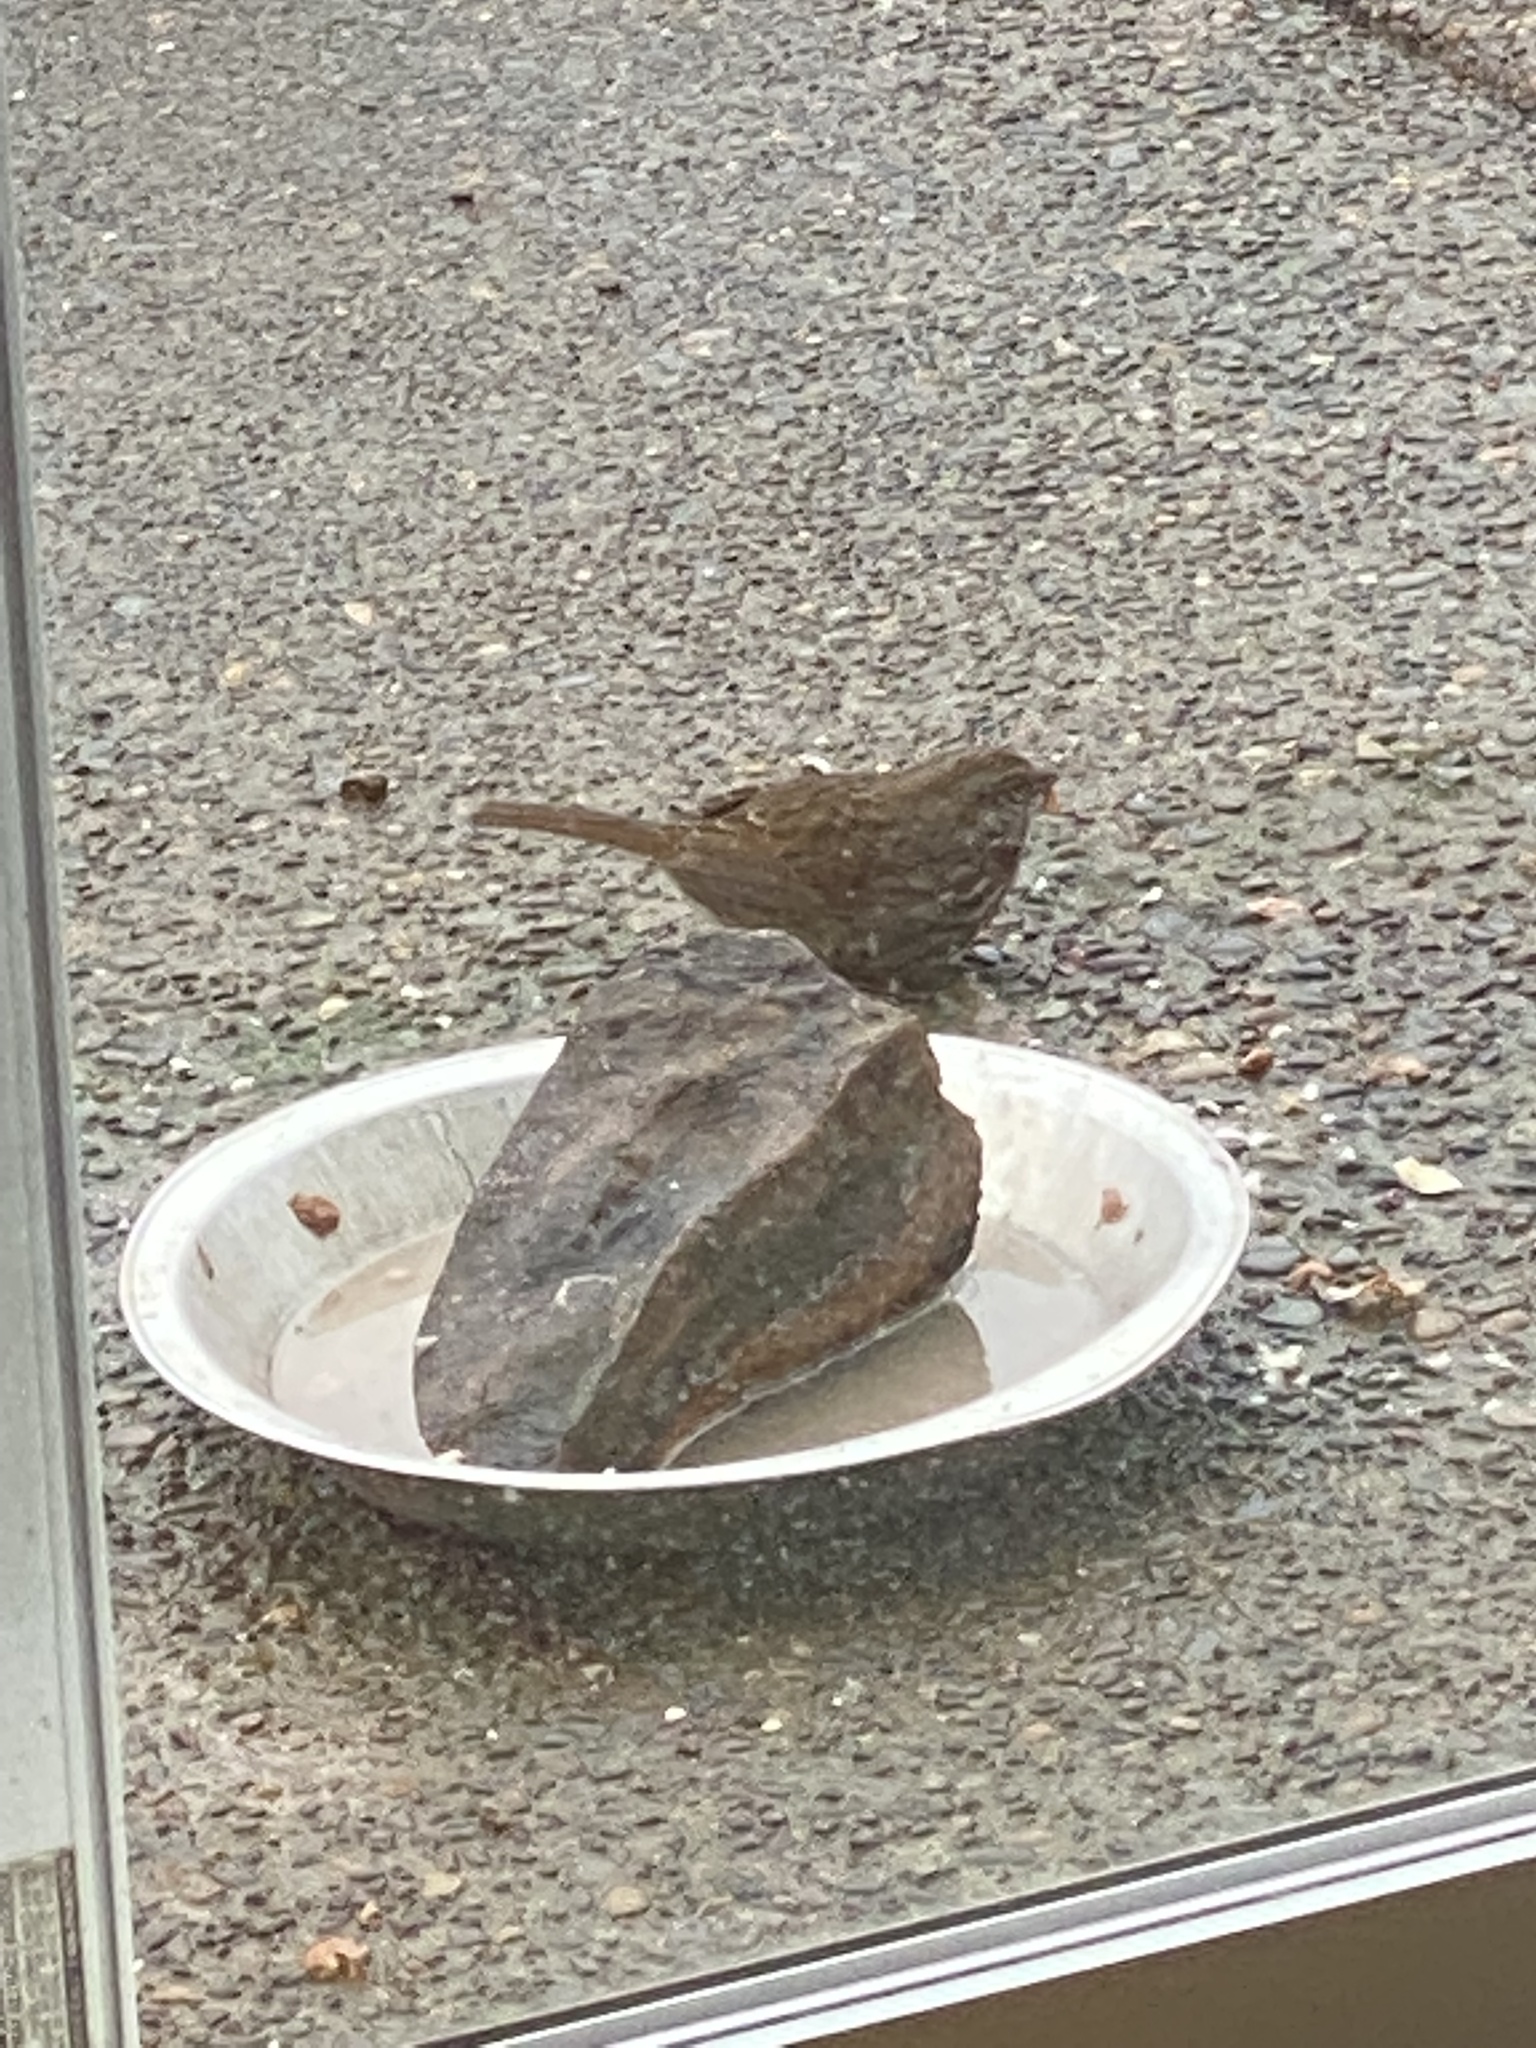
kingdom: Animalia
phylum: Chordata
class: Aves
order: Passeriformes
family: Passerellidae
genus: Melospiza
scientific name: Melospiza melodia
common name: Song sparrow
